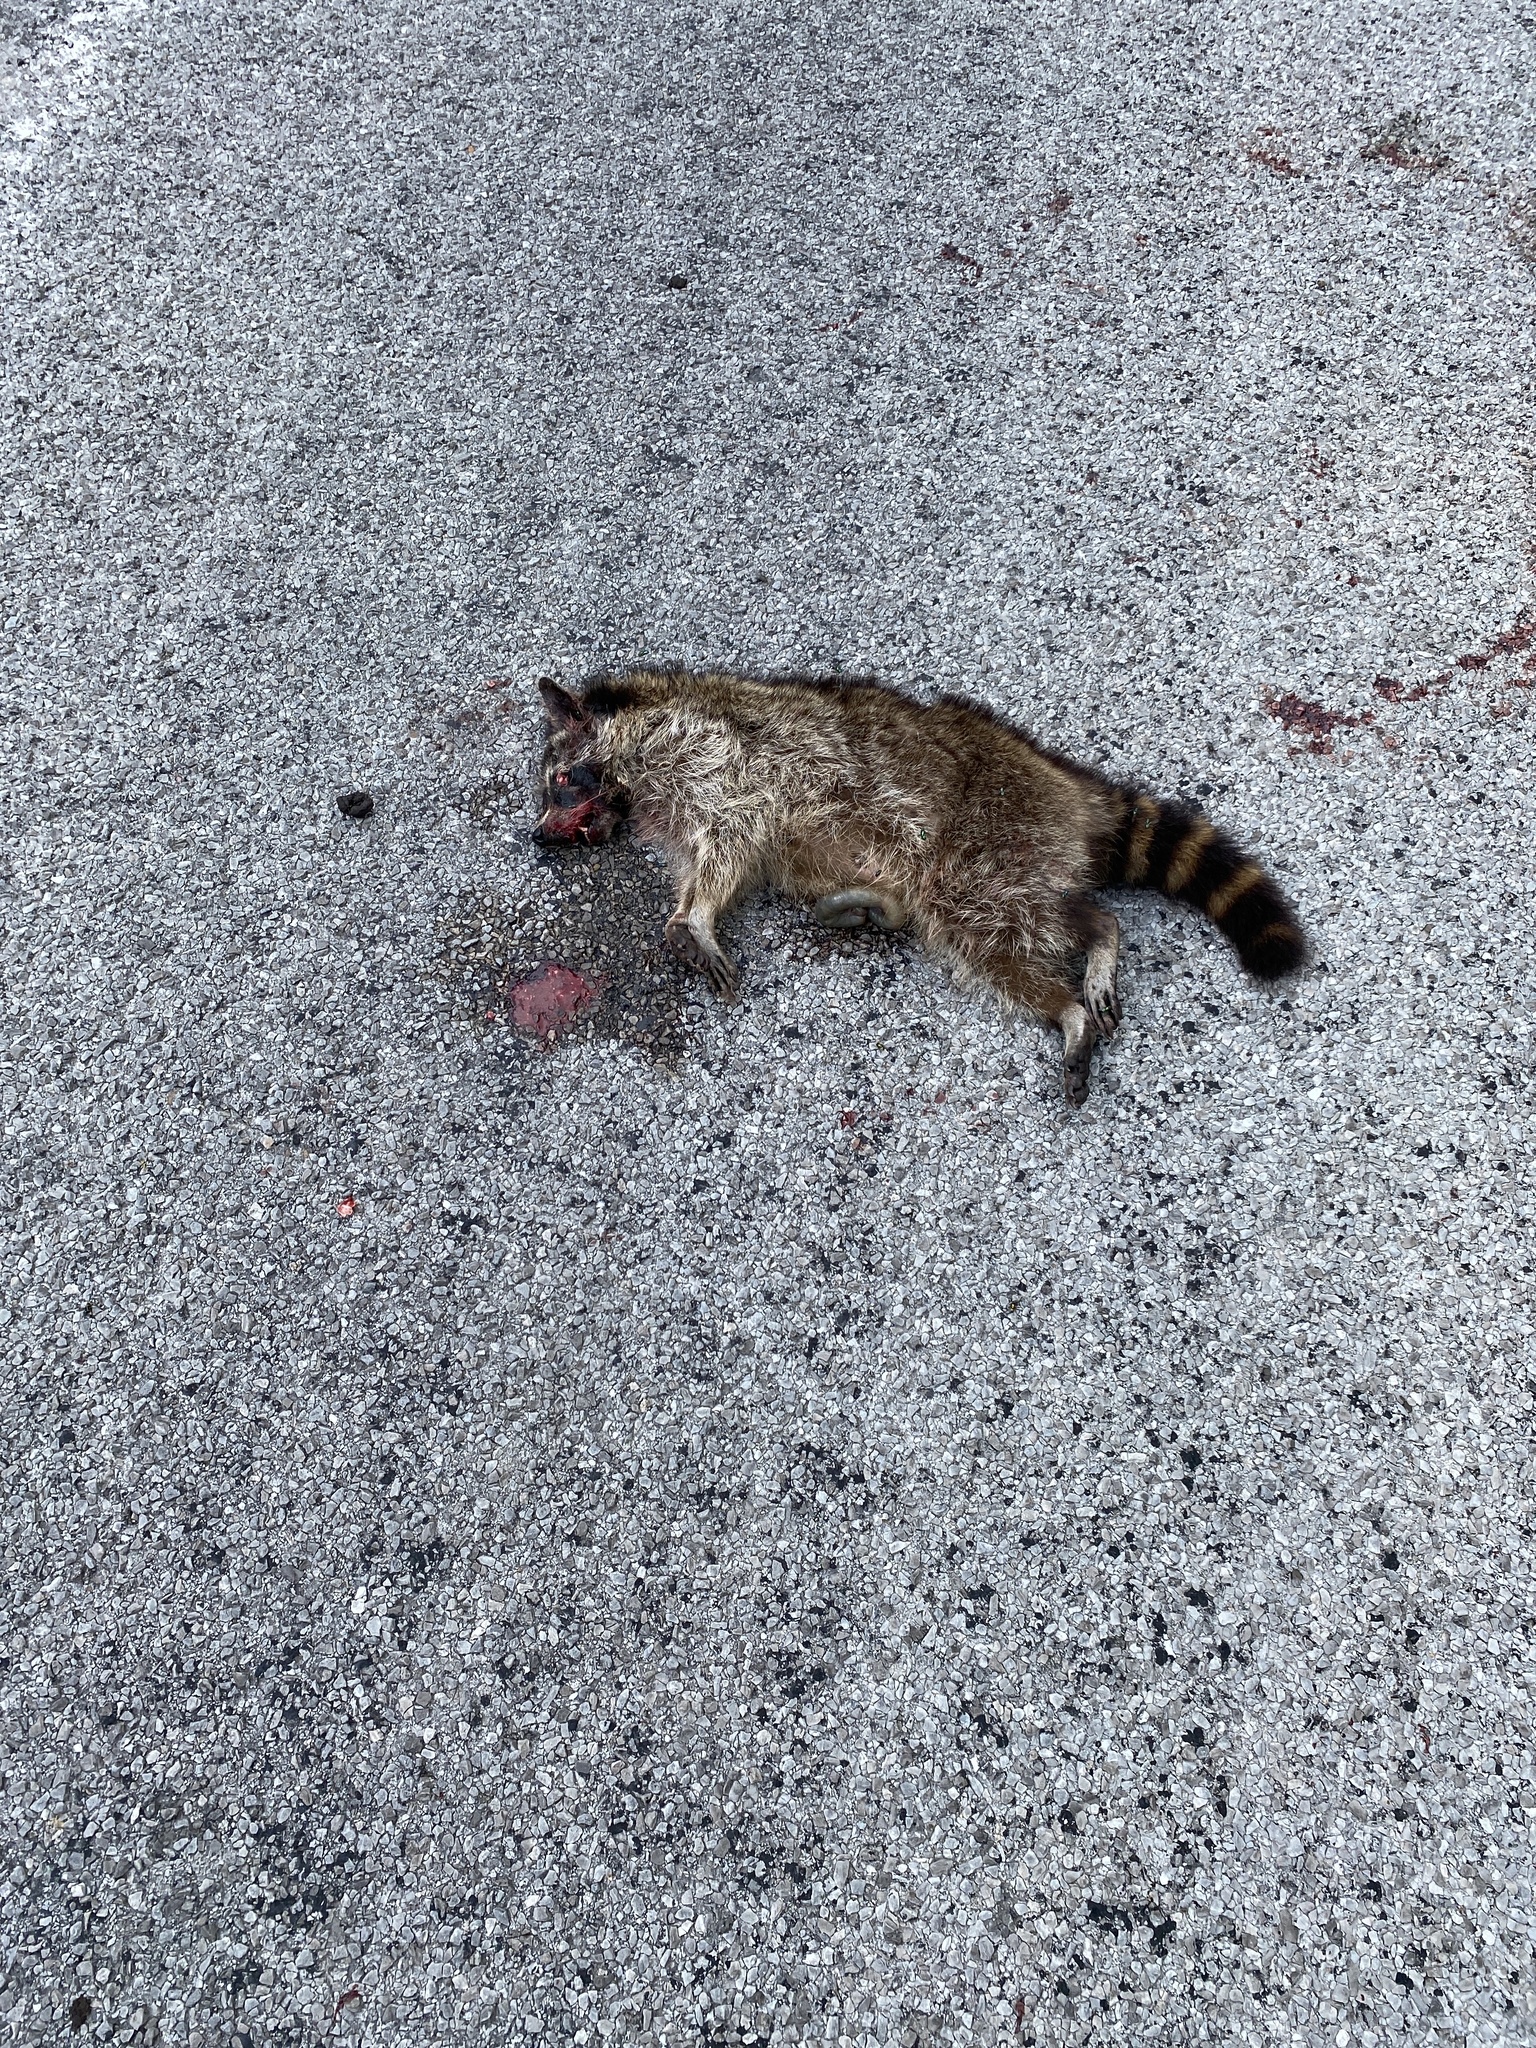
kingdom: Animalia
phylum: Chordata
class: Mammalia
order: Carnivora
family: Procyonidae
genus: Procyon
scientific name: Procyon lotor
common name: Raccoon
